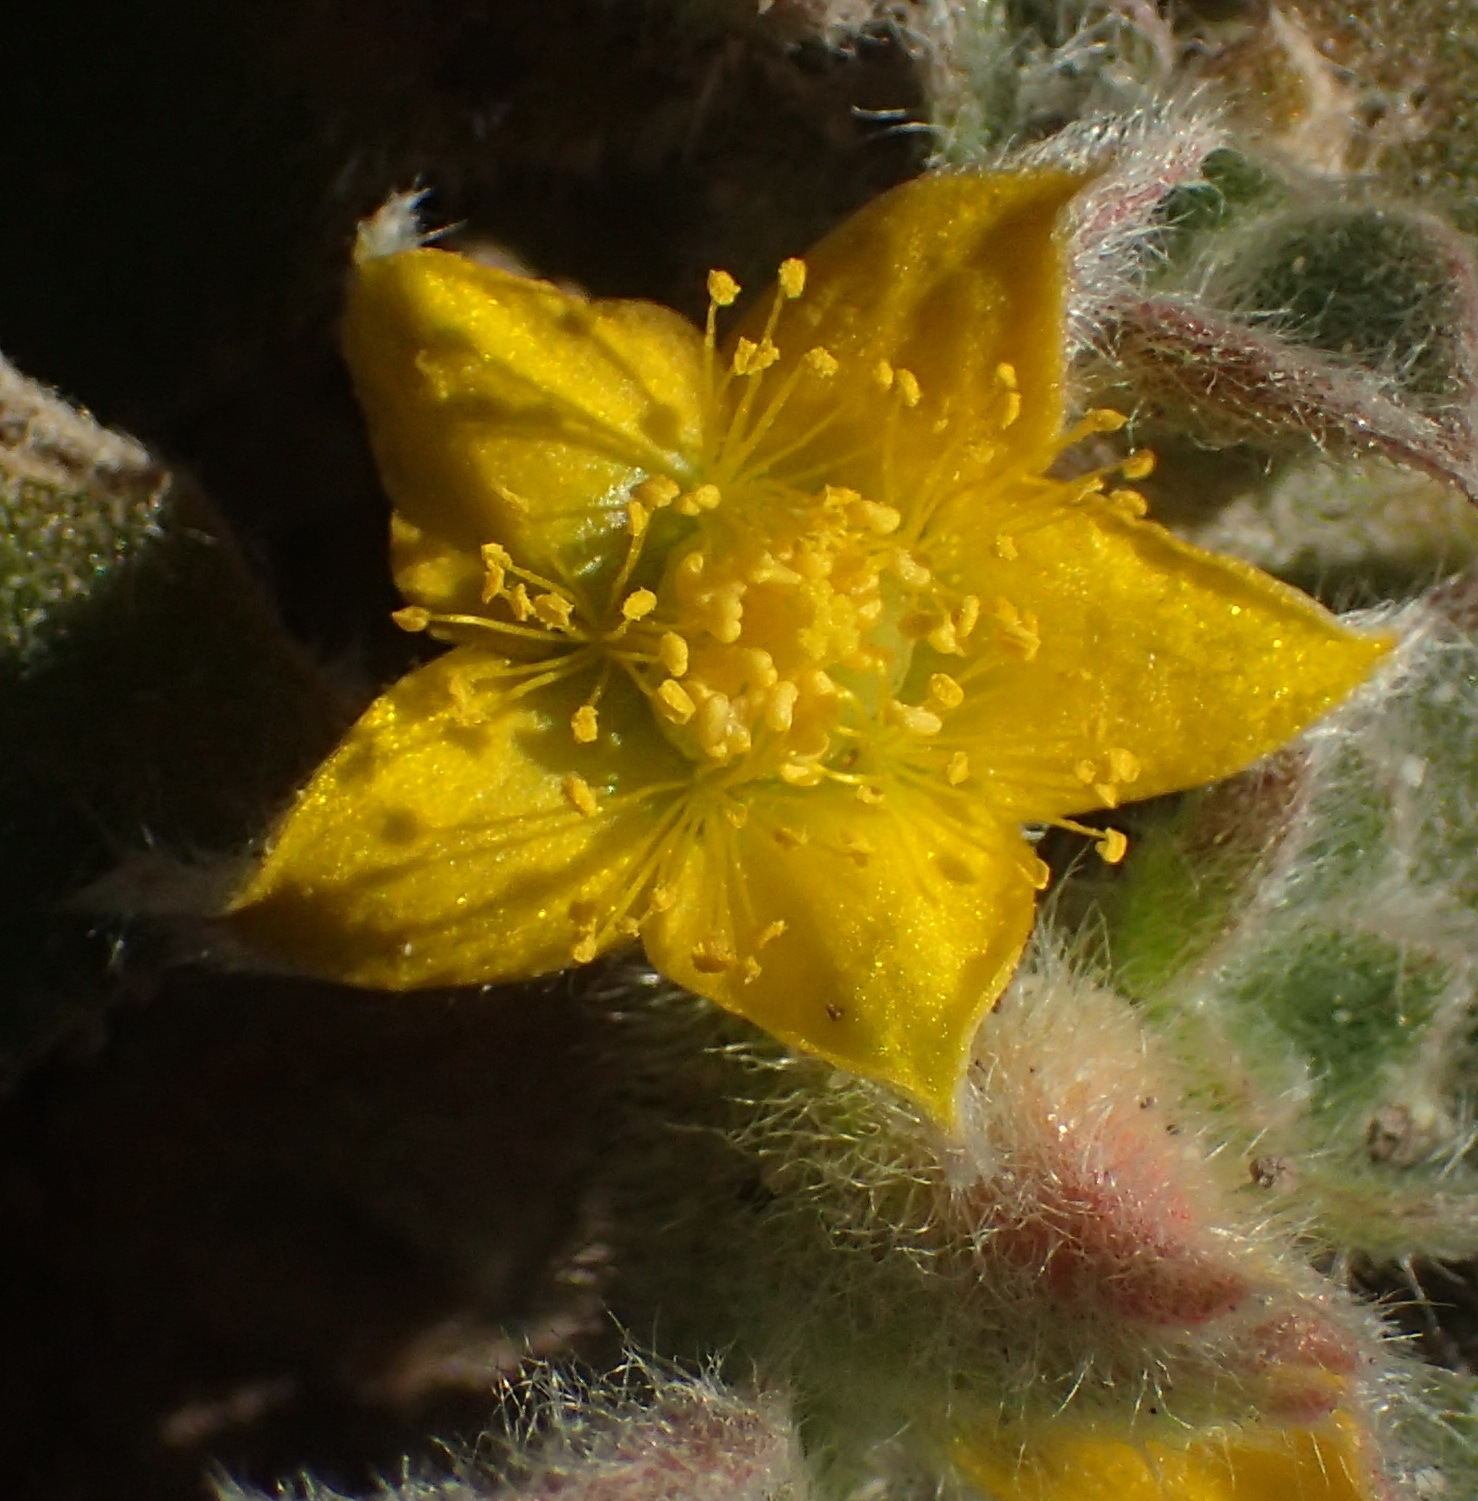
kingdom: Plantae
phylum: Tracheophyta
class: Magnoliopsida
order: Caryophyllales
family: Aizoaceae
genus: Aizoon
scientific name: Aizoon glinoides
